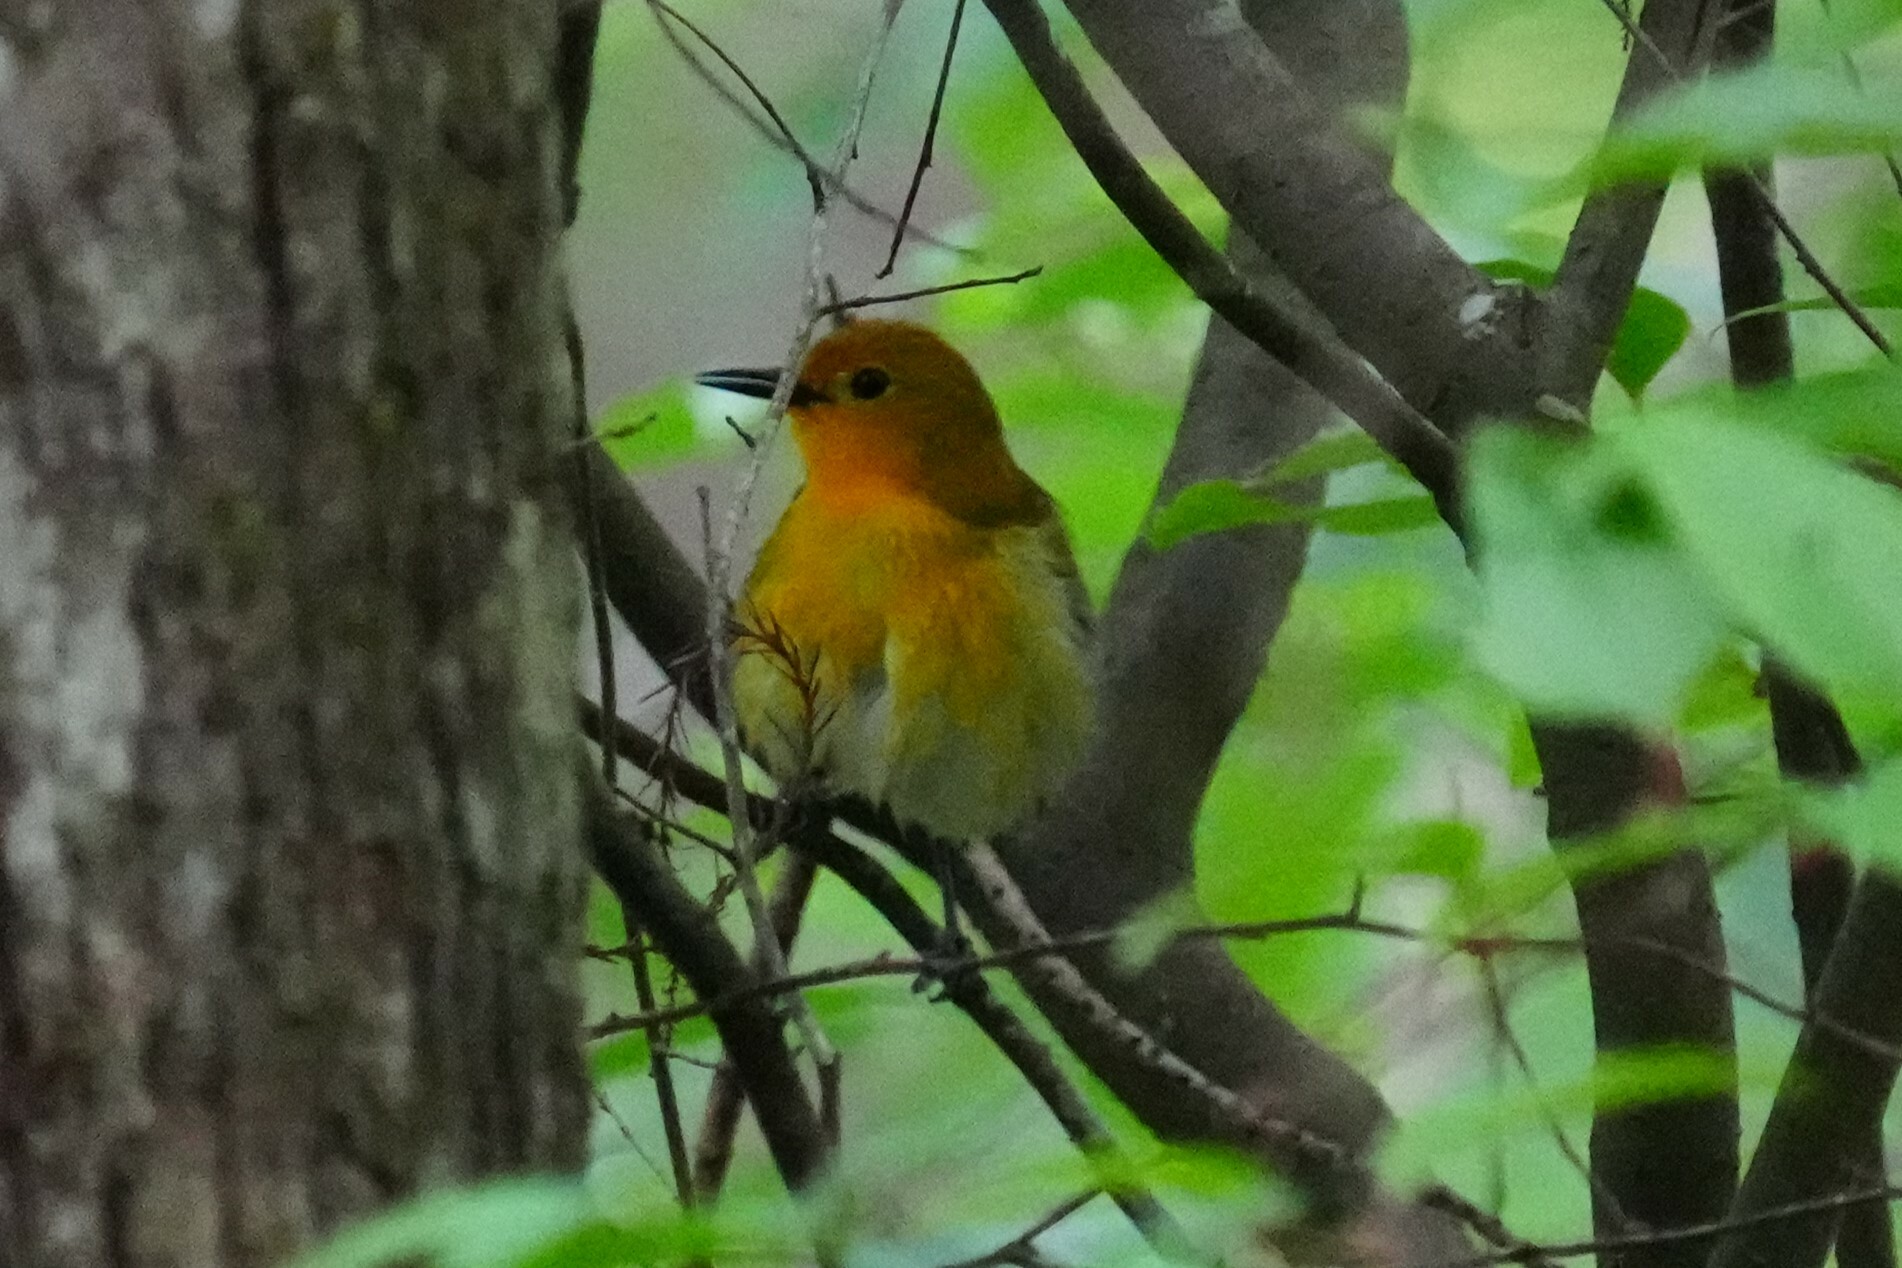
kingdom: Animalia
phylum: Chordata
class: Aves
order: Passeriformes
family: Parulidae
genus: Protonotaria
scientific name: Protonotaria citrea
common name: Prothonotary warbler
